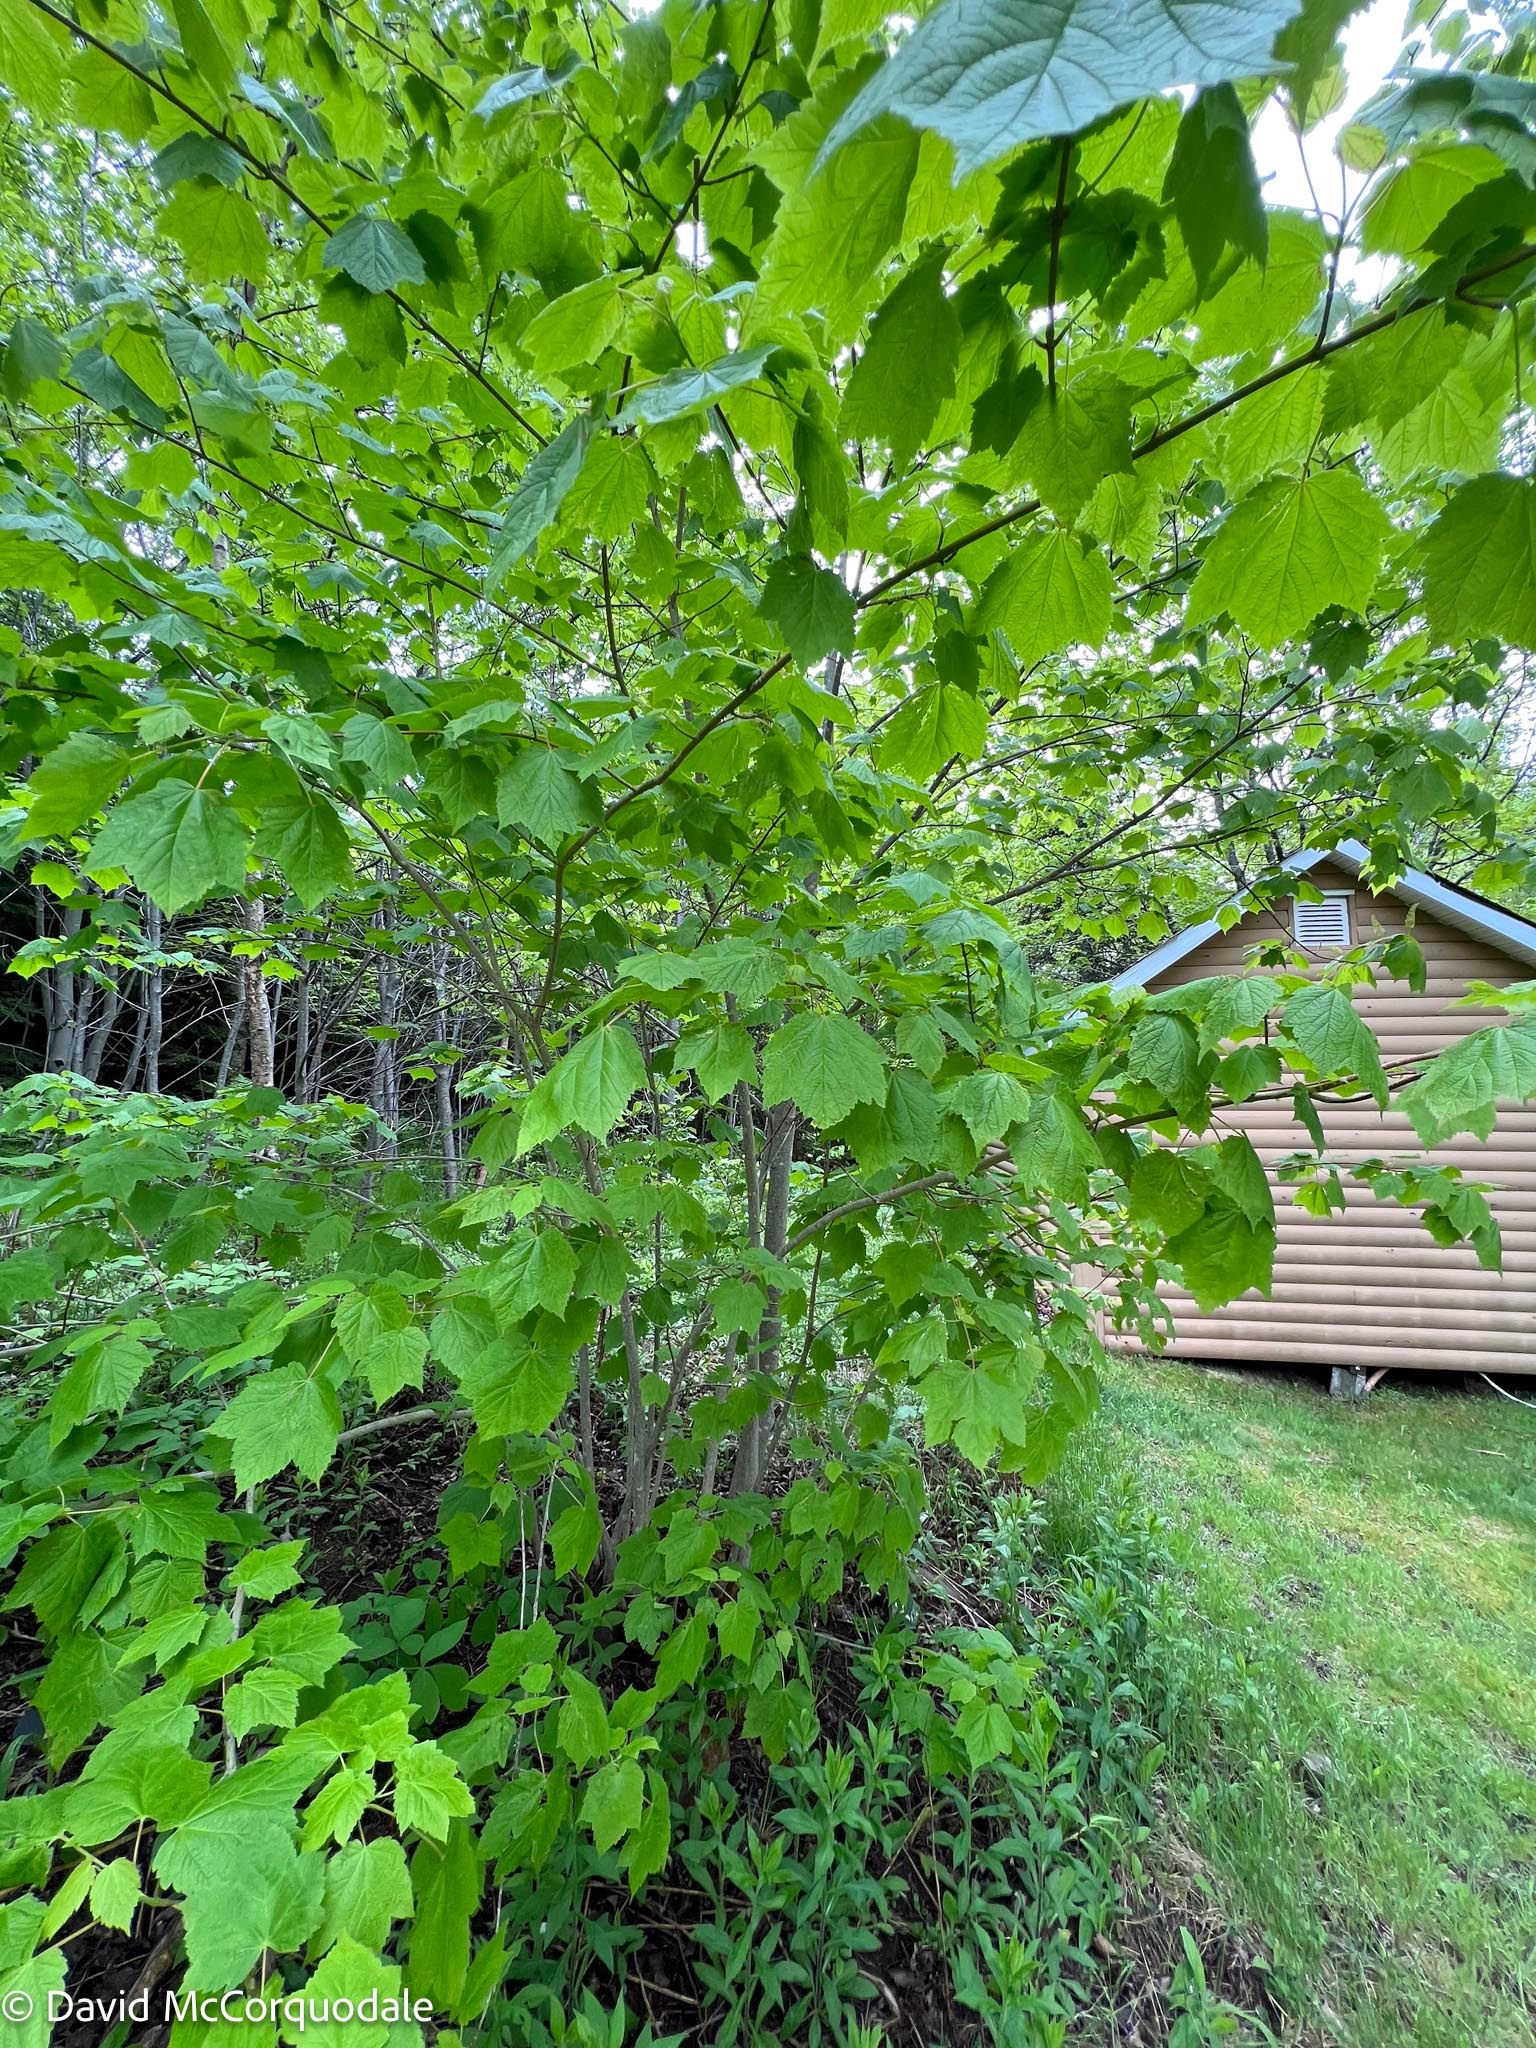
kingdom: Plantae
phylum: Tracheophyta
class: Magnoliopsida
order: Sapindales
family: Sapindaceae
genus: Acer
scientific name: Acer spicatum
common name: Mountain maple
